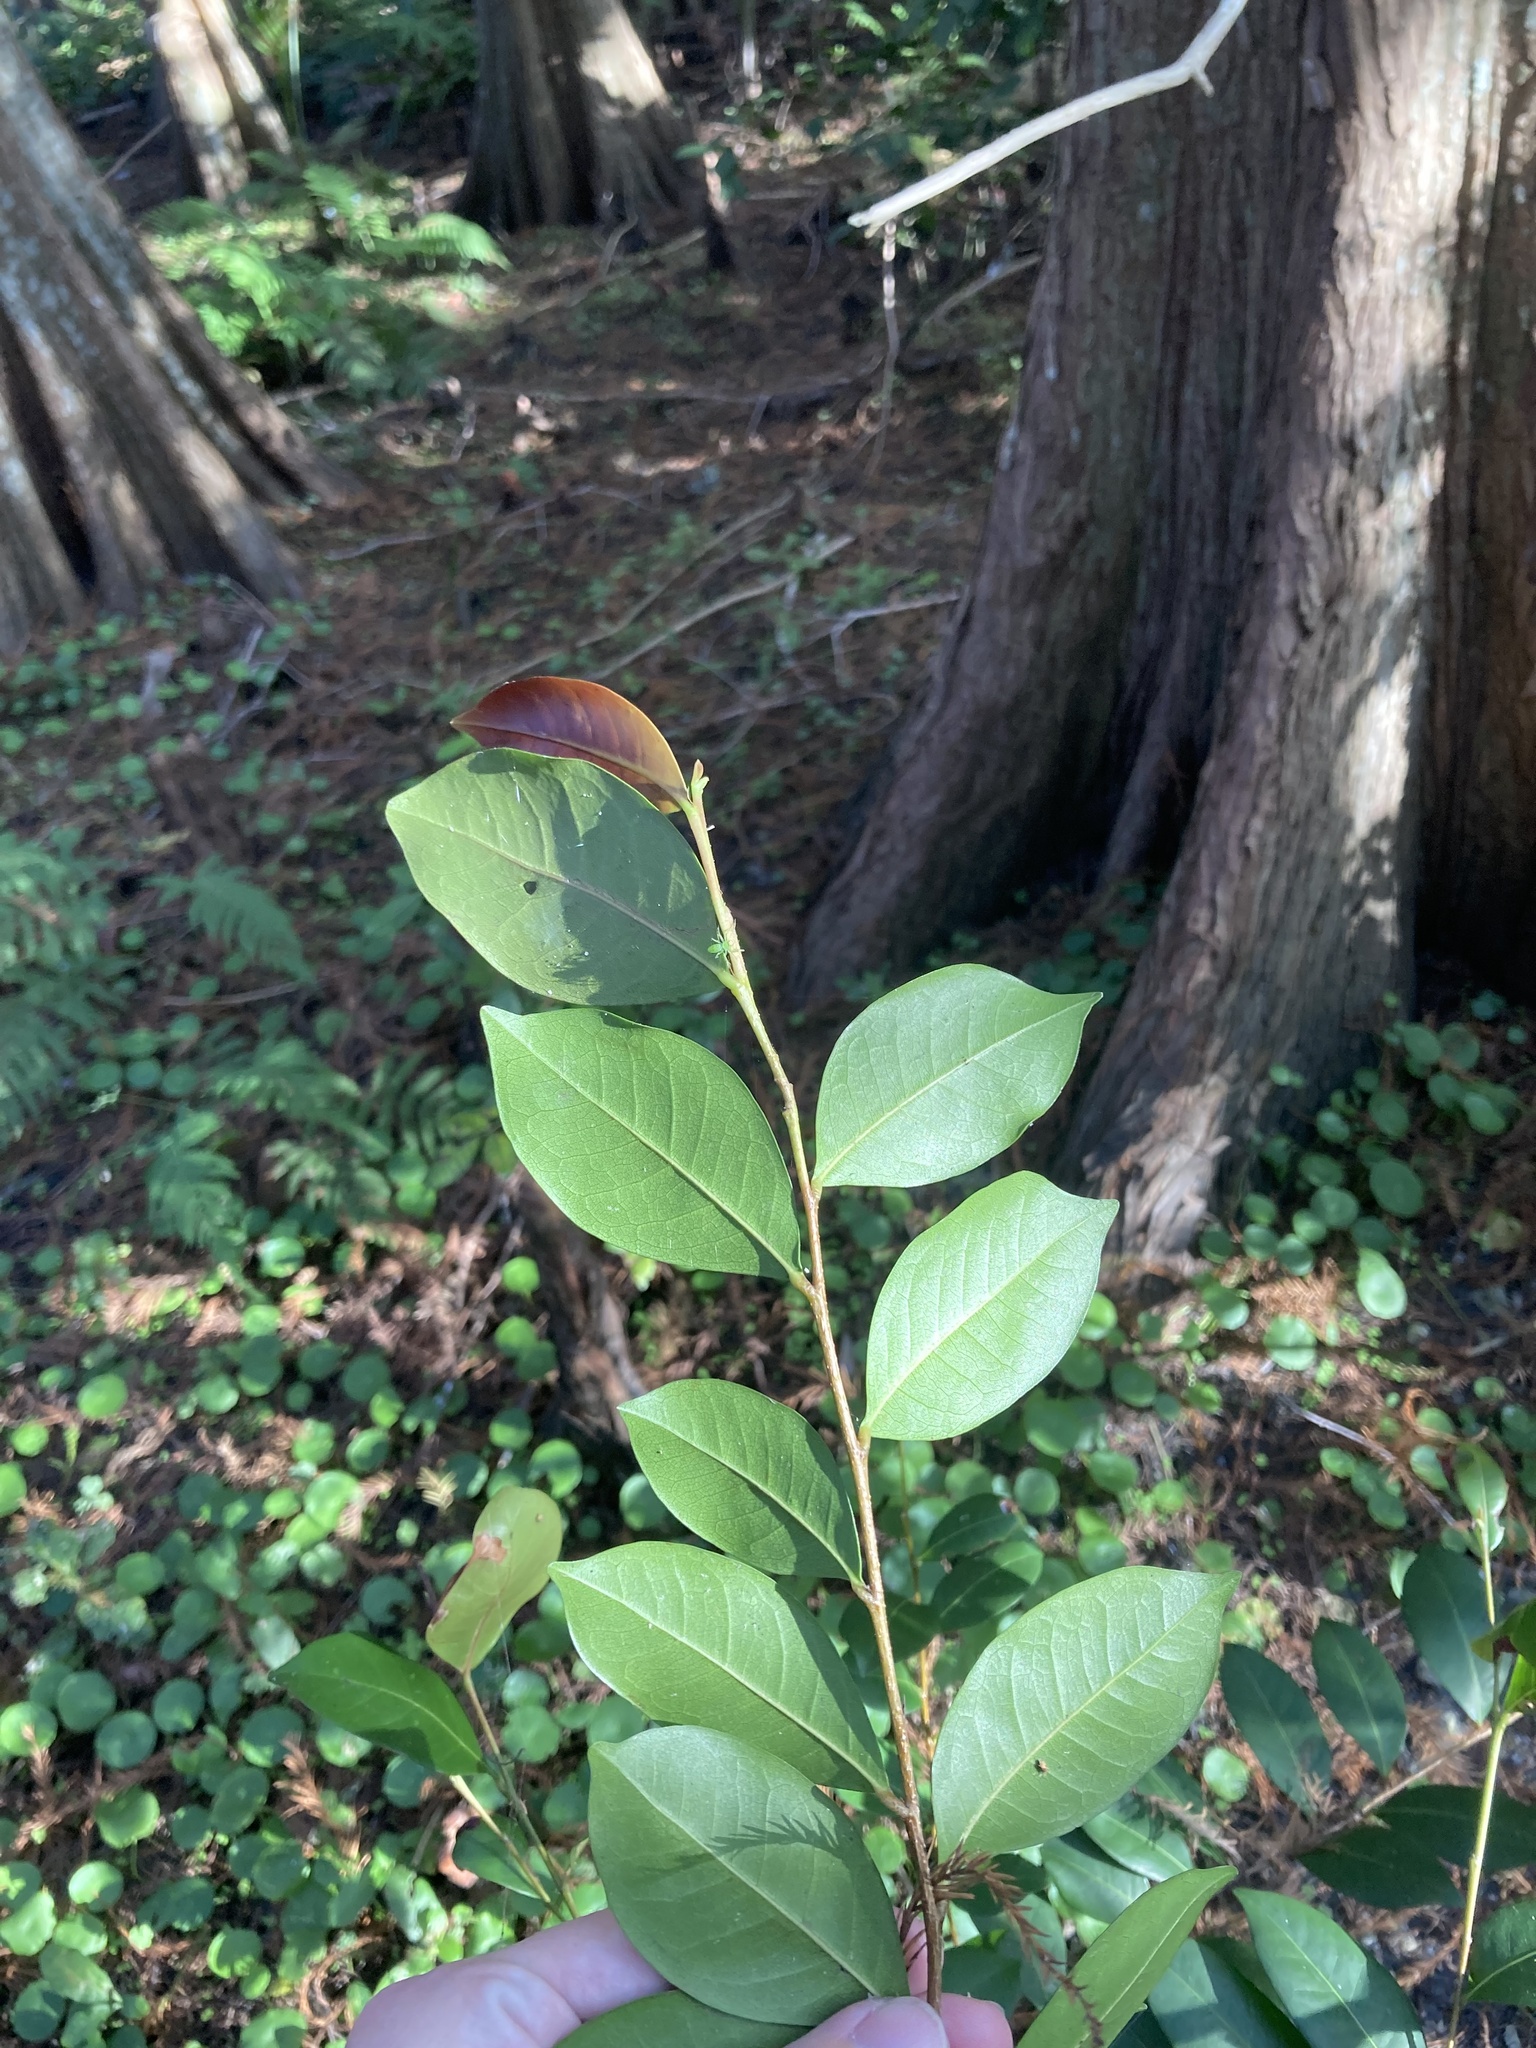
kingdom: Plantae
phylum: Tracheophyta
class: Magnoliopsida
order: Malpighiales
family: Chrysobalanaceae
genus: Chrysobalanus
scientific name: Chrysobalanus icaco
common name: Coco plum
